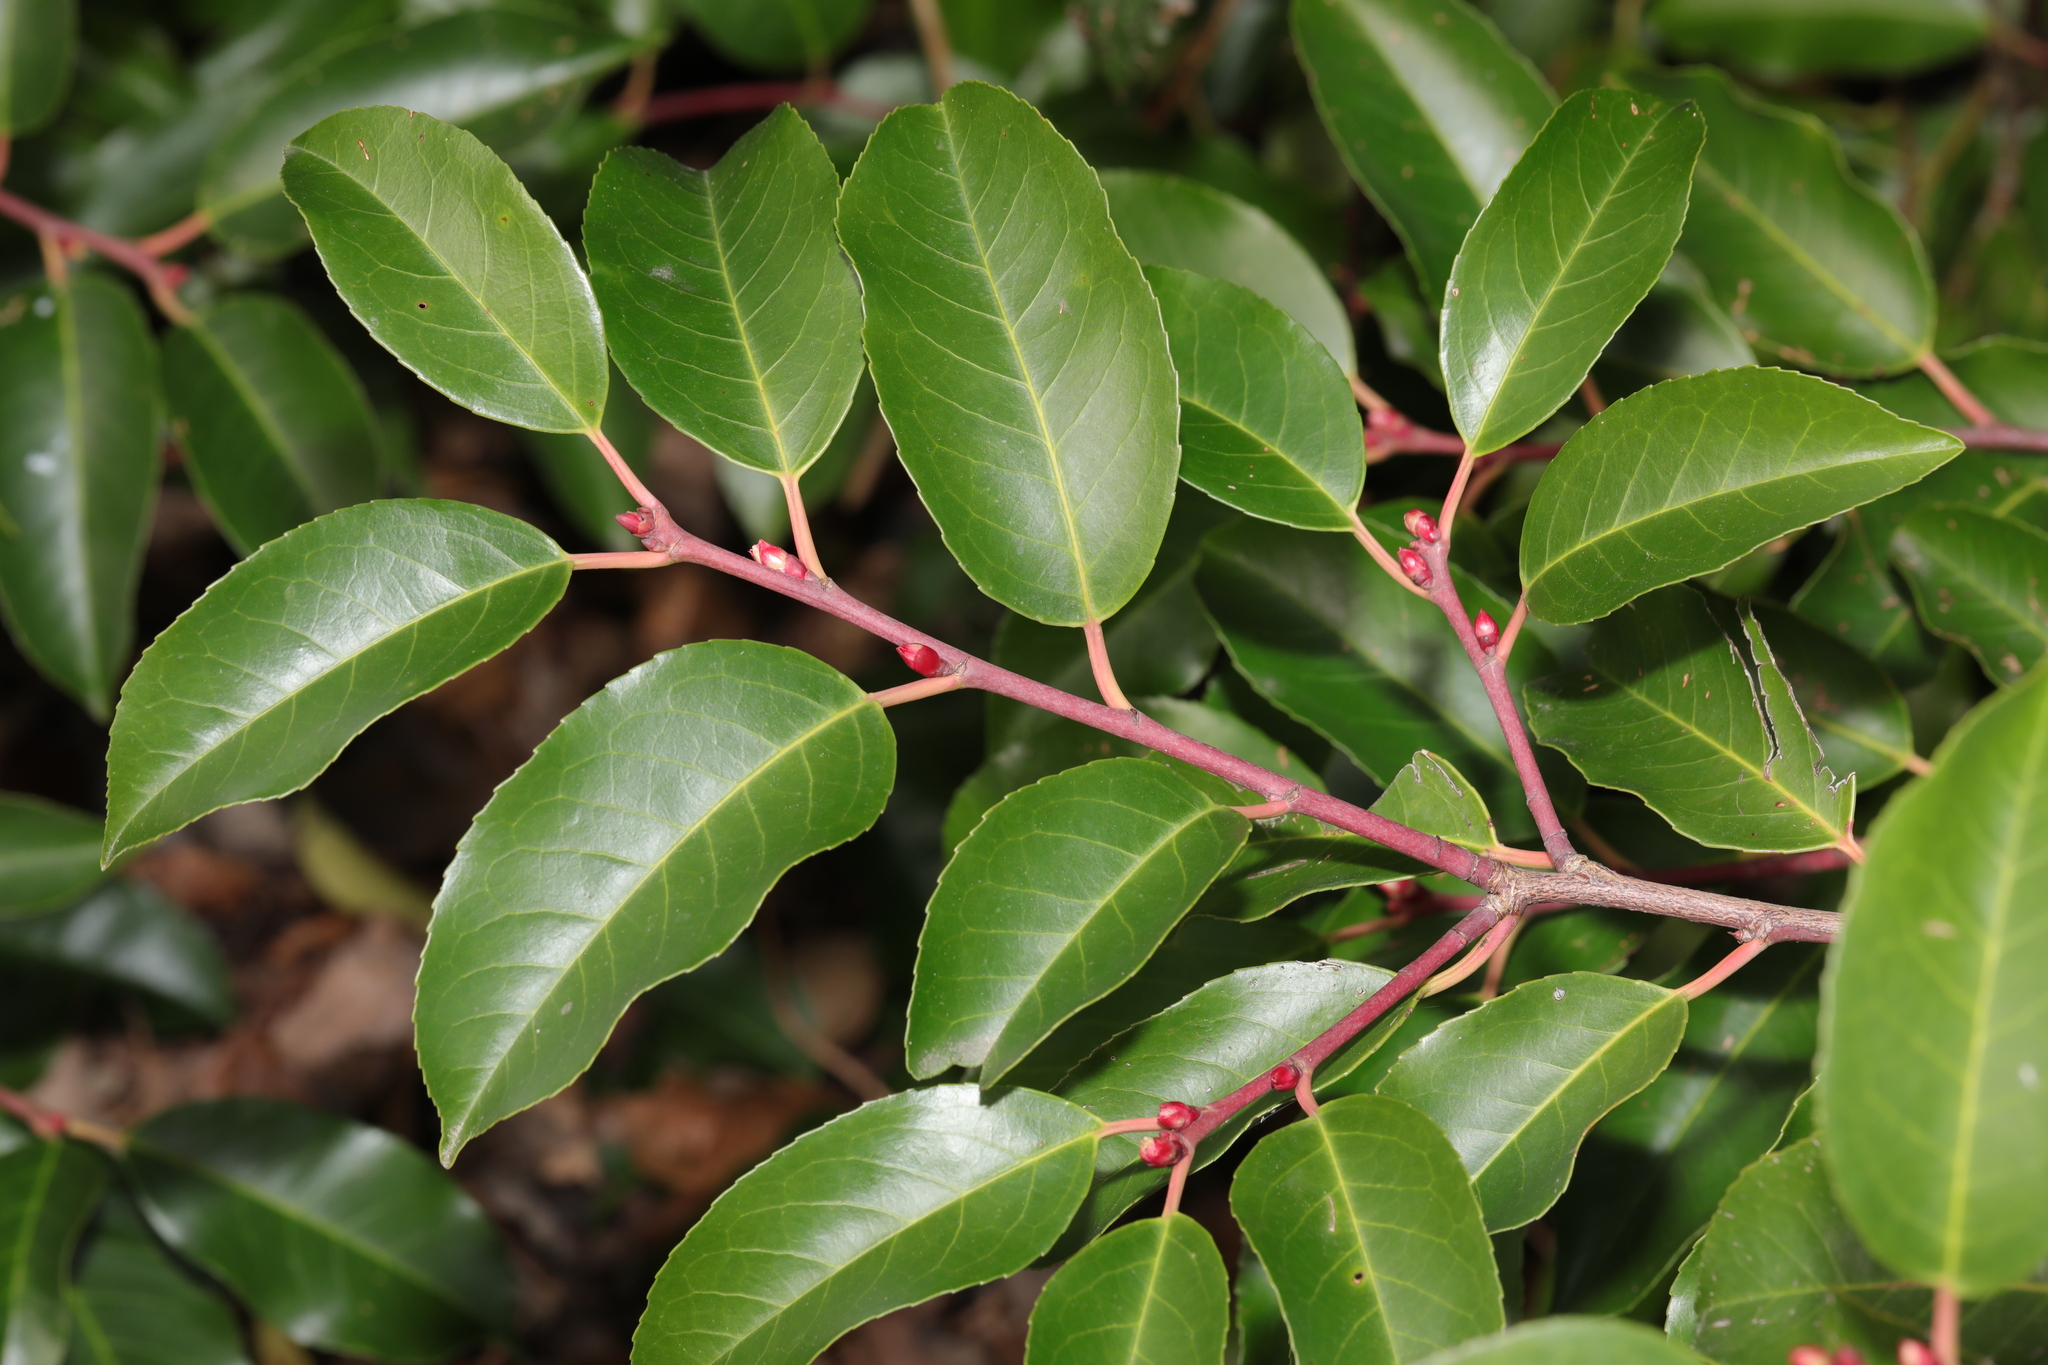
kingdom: Plantae
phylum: Tracheophyta
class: Magnoliopsida
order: Rosales
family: Rosaceae
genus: Prunus
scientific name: Prunus lusitanica
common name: Portugal laurel
